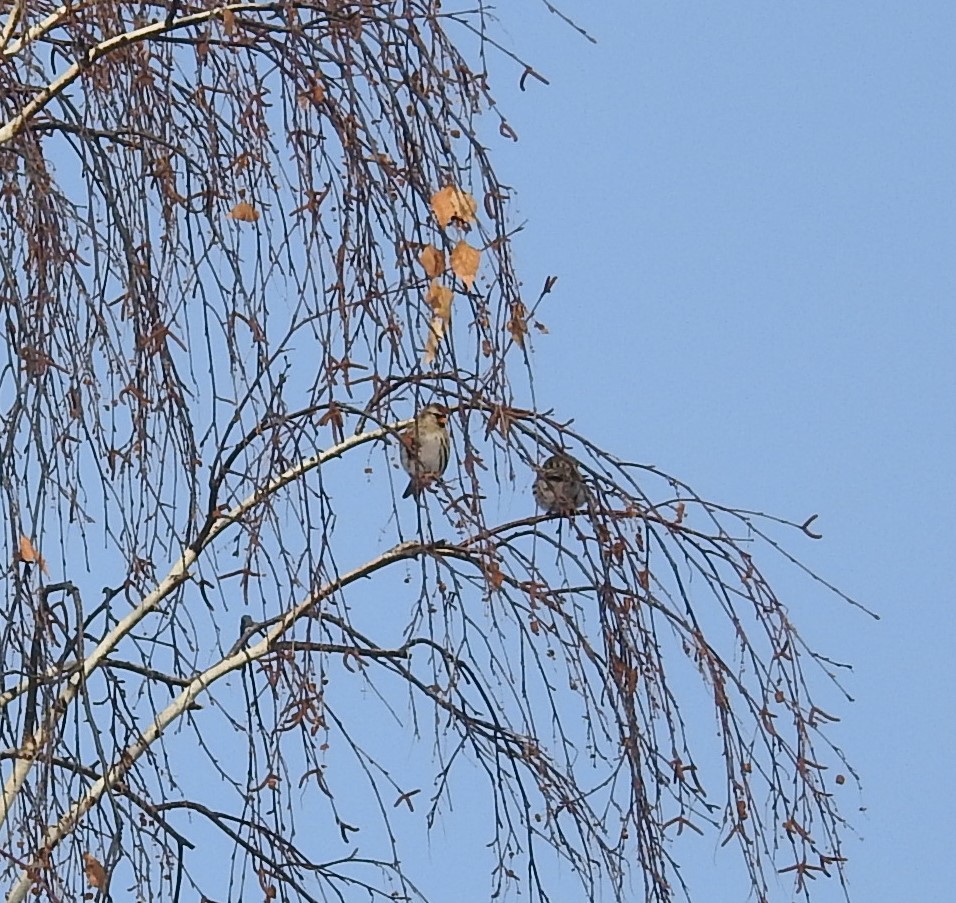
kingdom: Animalia
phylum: Chordata
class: Aves
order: Passeriformes
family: Fringillidae
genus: Acanthis
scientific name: Acanthis flammea
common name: Common redpoll
